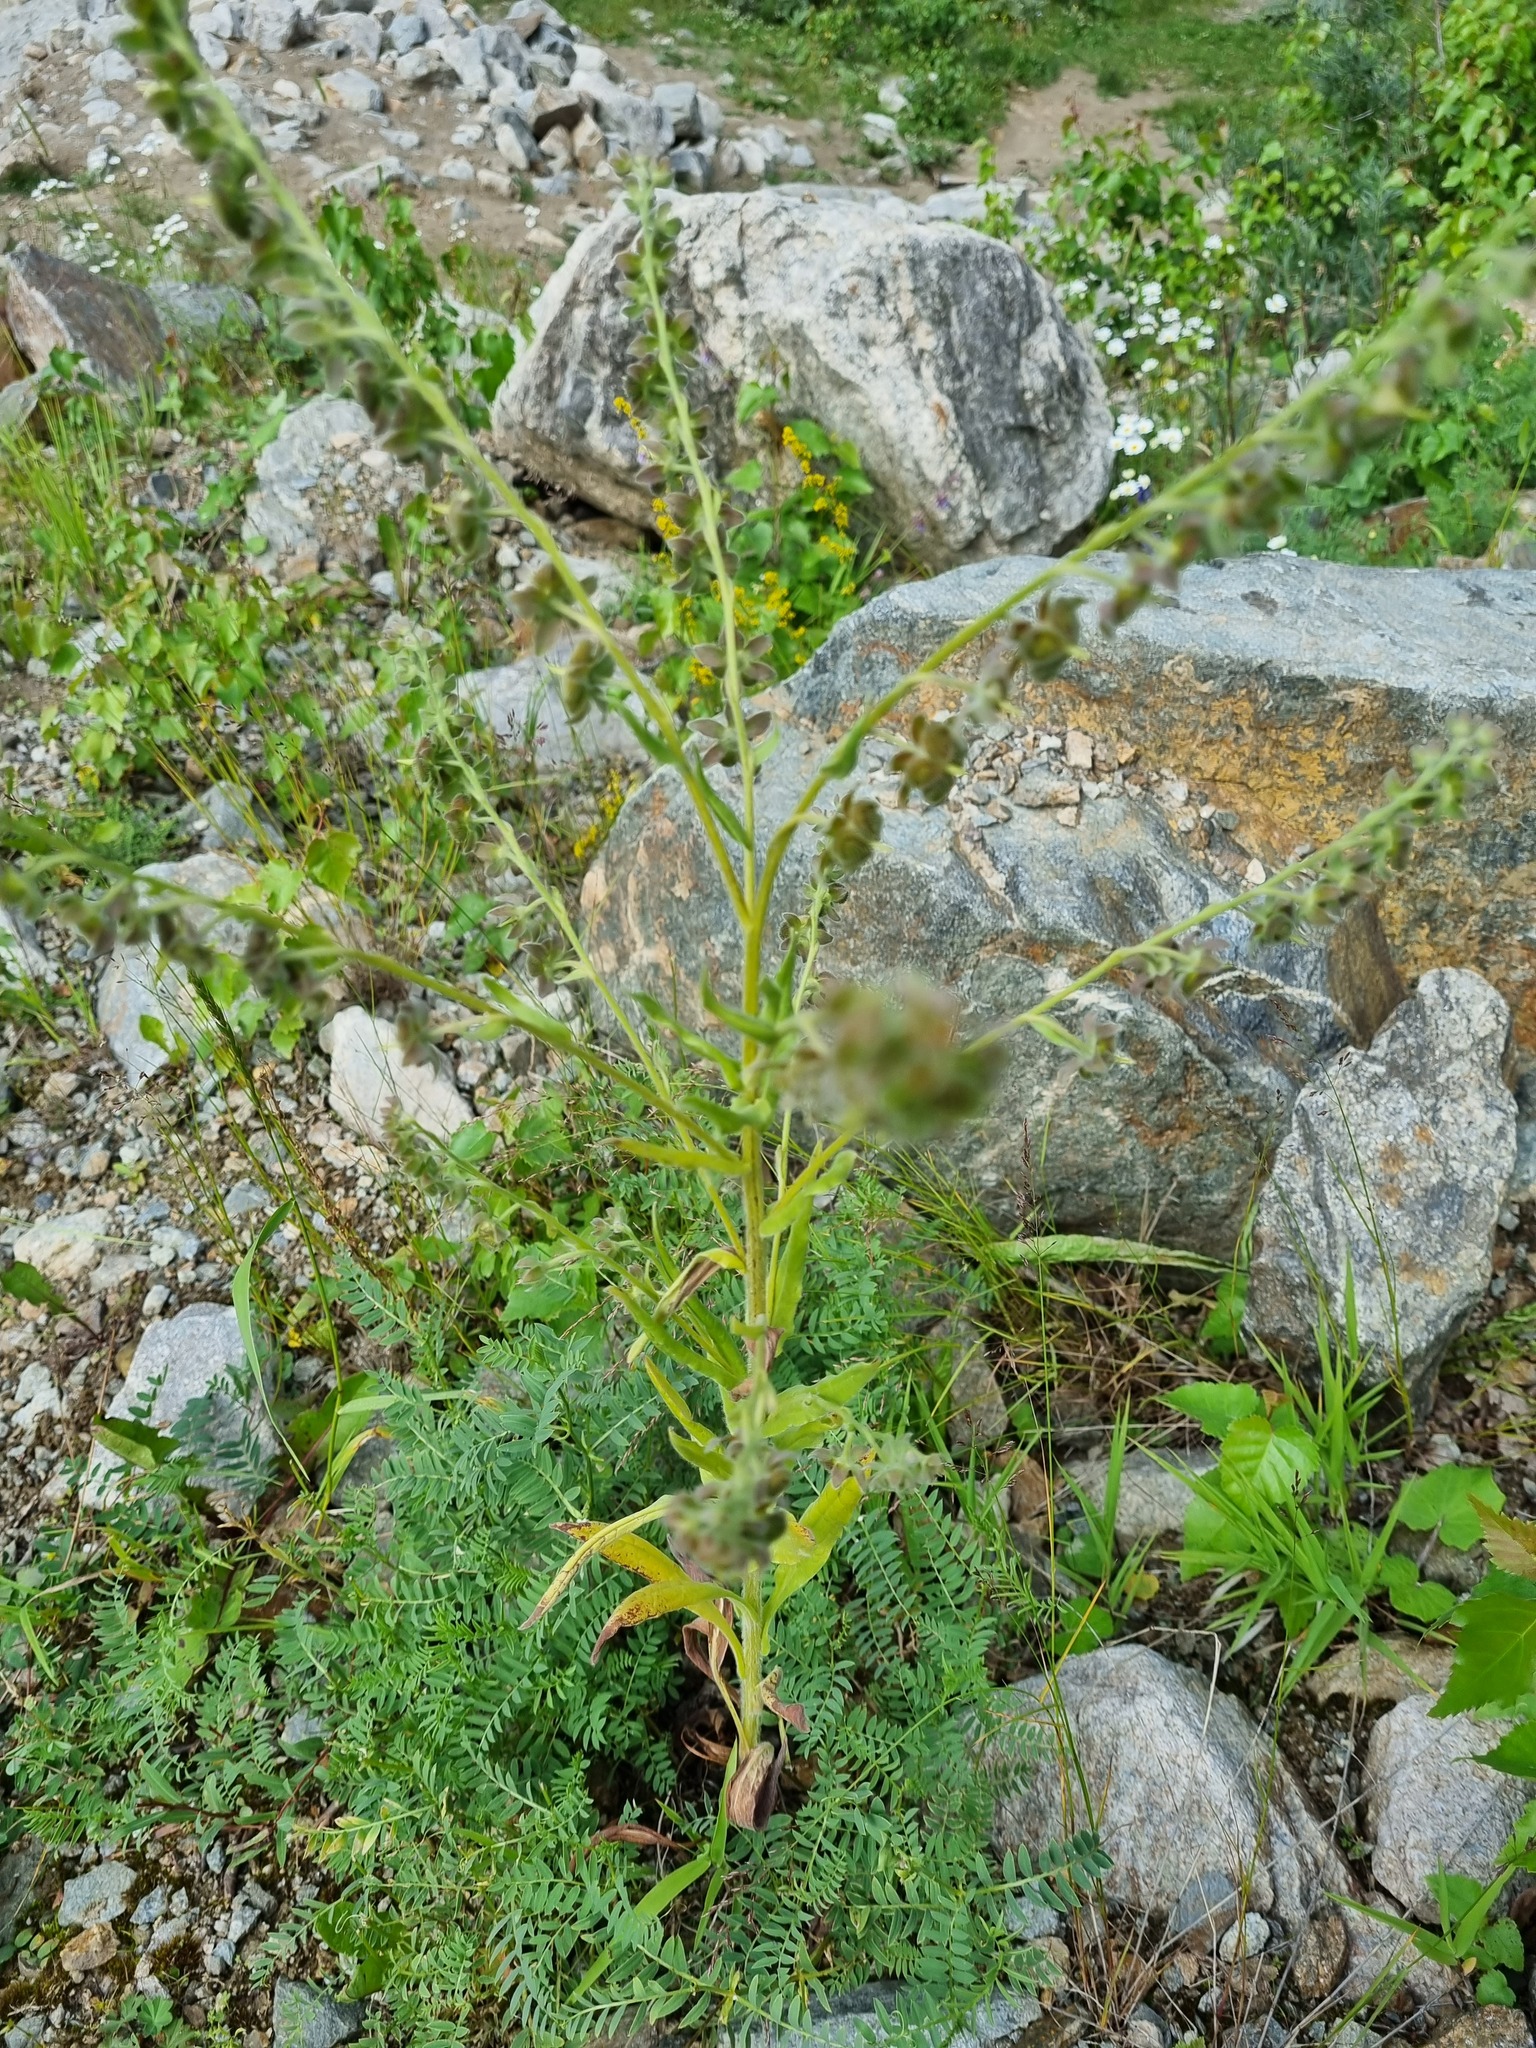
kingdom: Plantae
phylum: Tracheophyta
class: Magnoliopsida
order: Boraginales
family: Boraginaceae
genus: Cynoglossum
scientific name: Cynoglossum officinale
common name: Hound's-tongue
